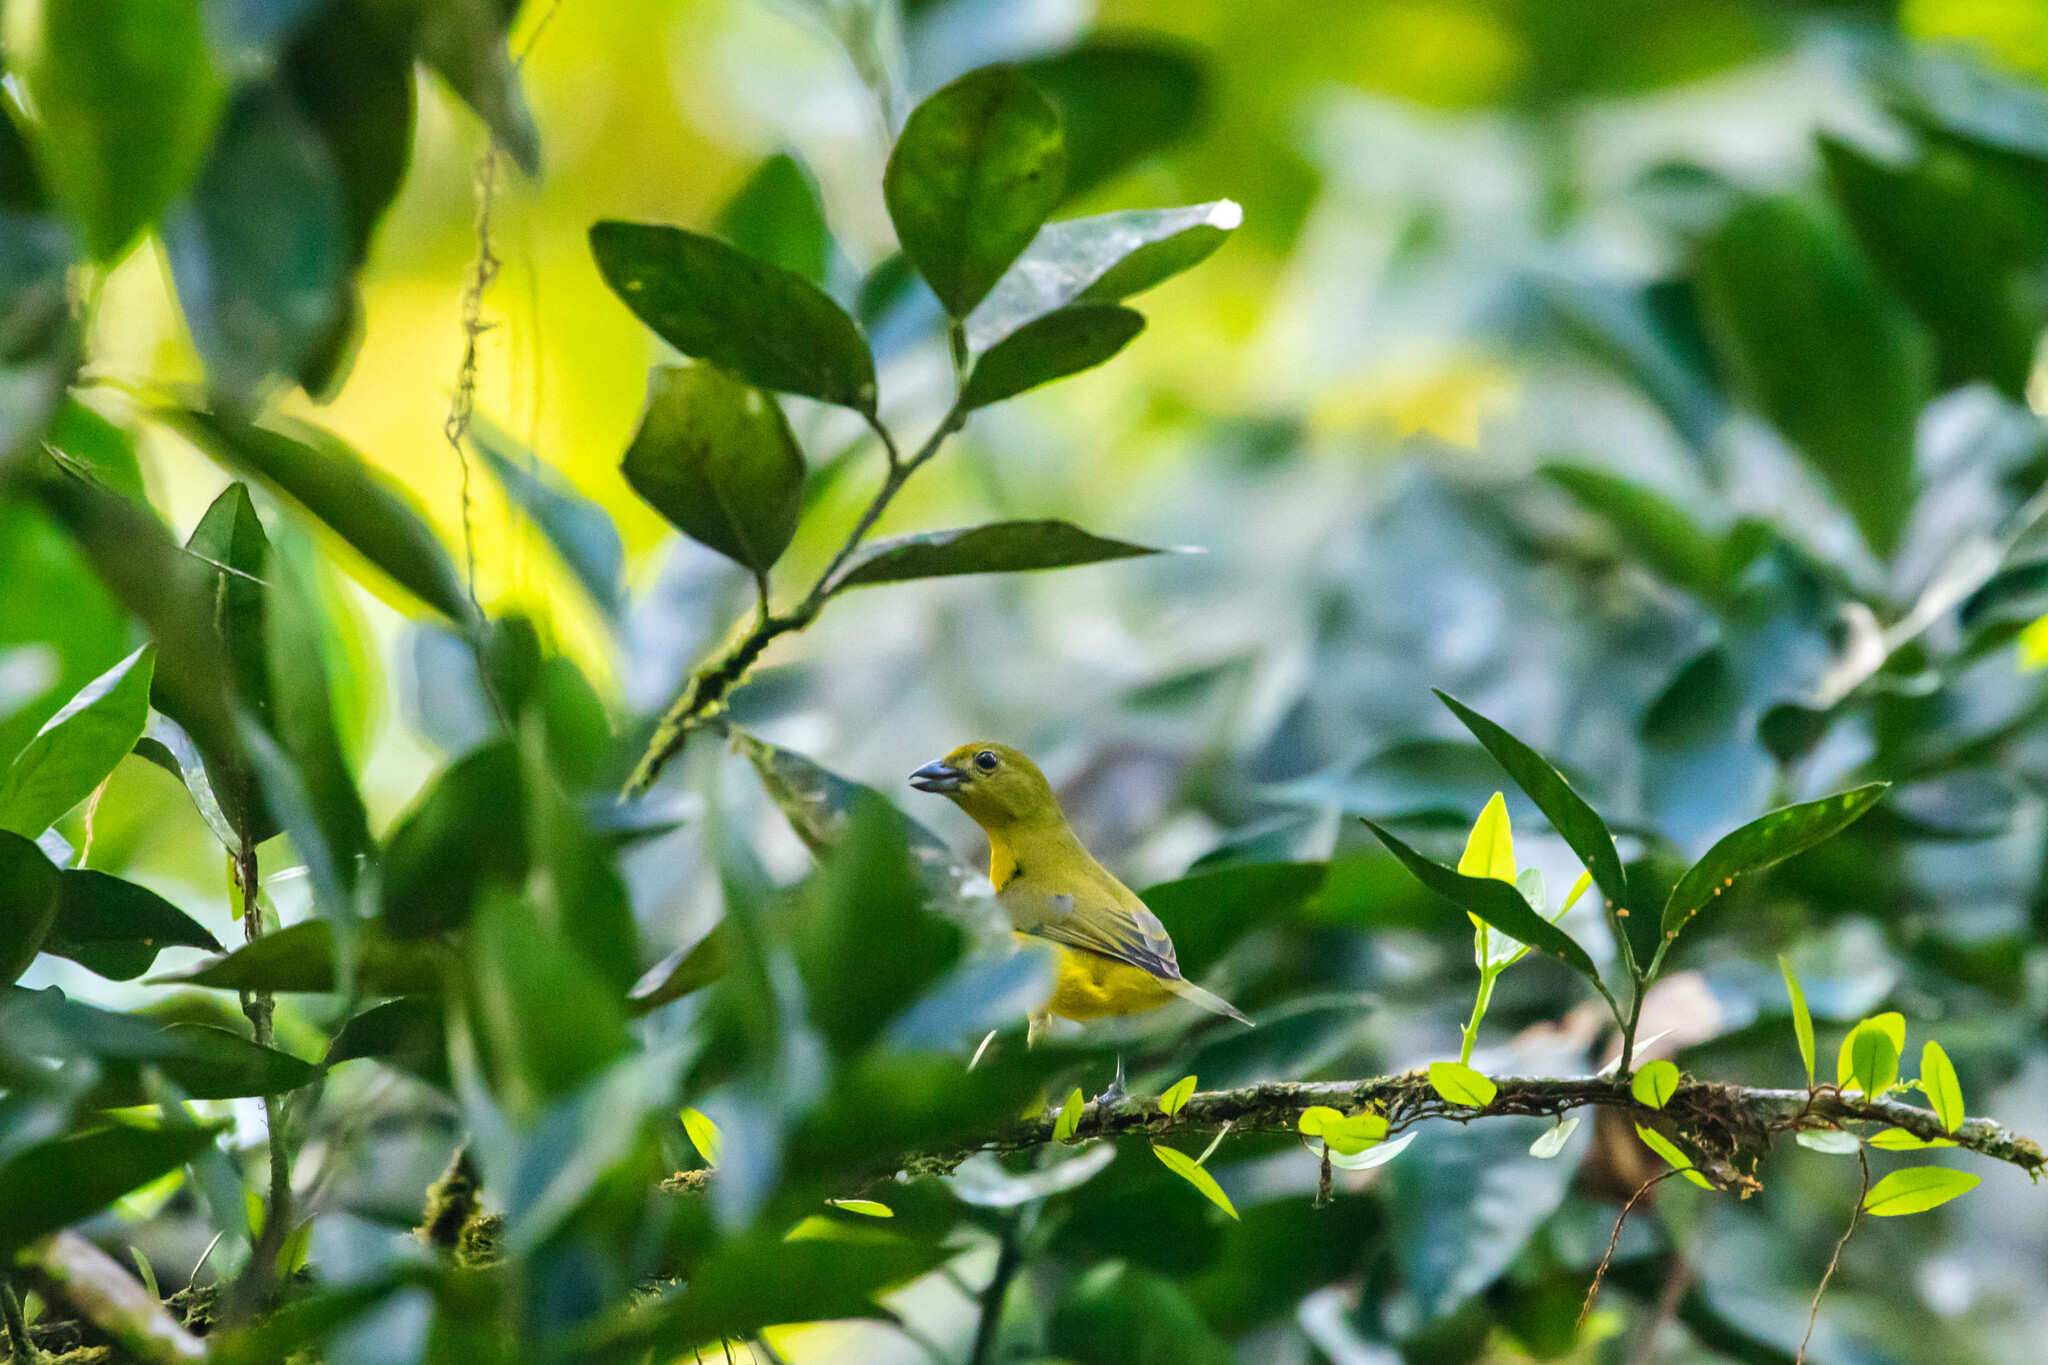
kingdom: Animalia
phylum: Chordata
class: Aves
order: Passeriformes
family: Fringillidae
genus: Euphonia
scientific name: Euphonia violacea
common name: Violaceous euphonia
